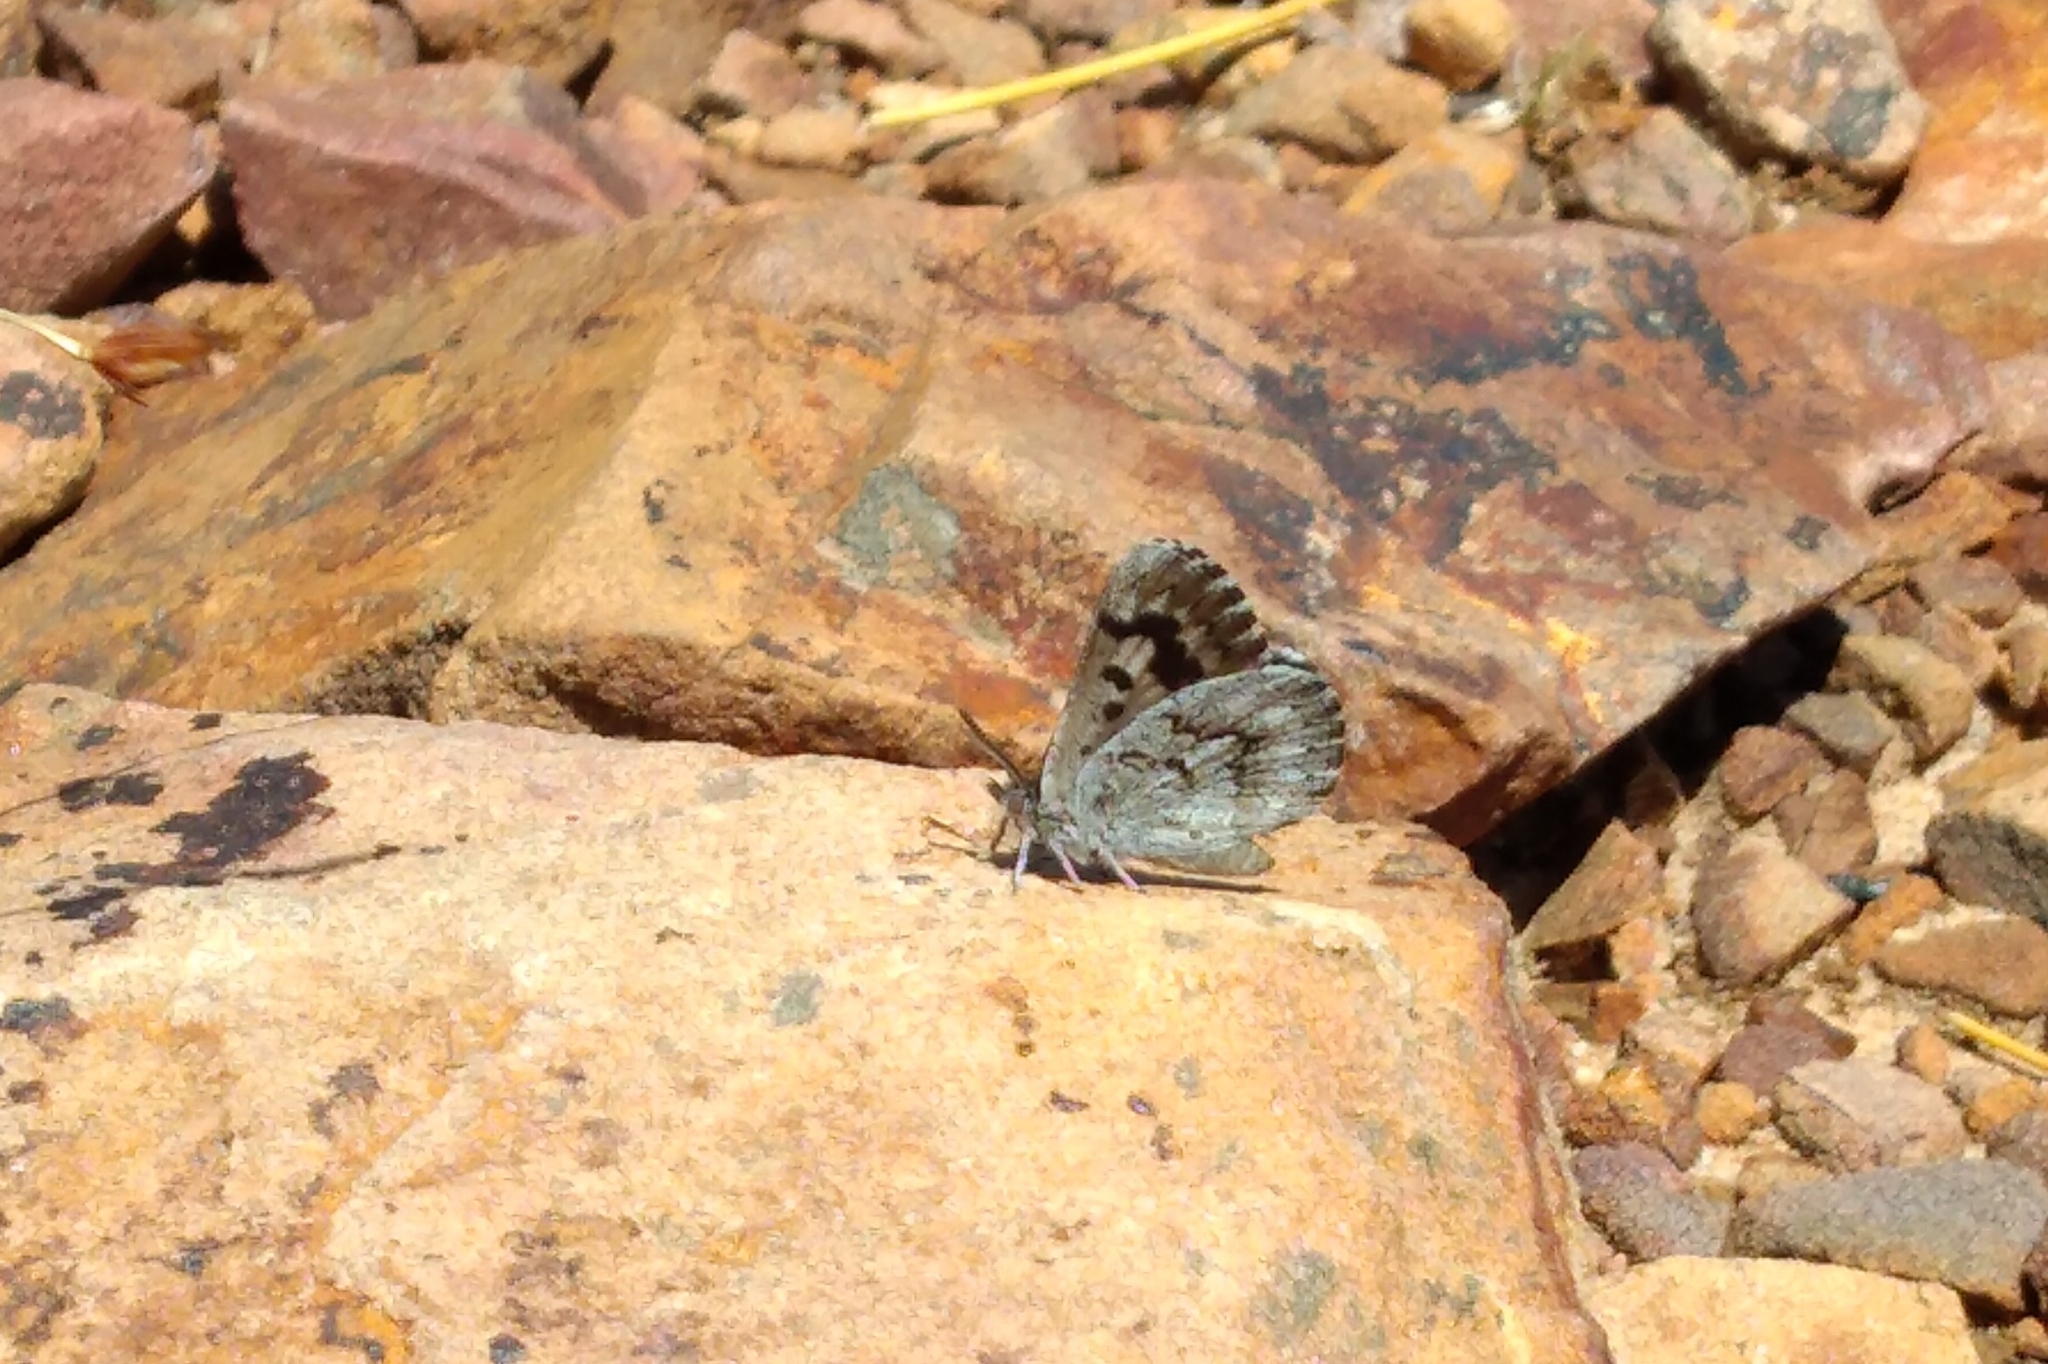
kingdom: Animalia
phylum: Arthropoda
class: Insecta
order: Lepidoptera
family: Lycaenidae
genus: Thestor
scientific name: Thestor holmesi
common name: Holmes' skolly
